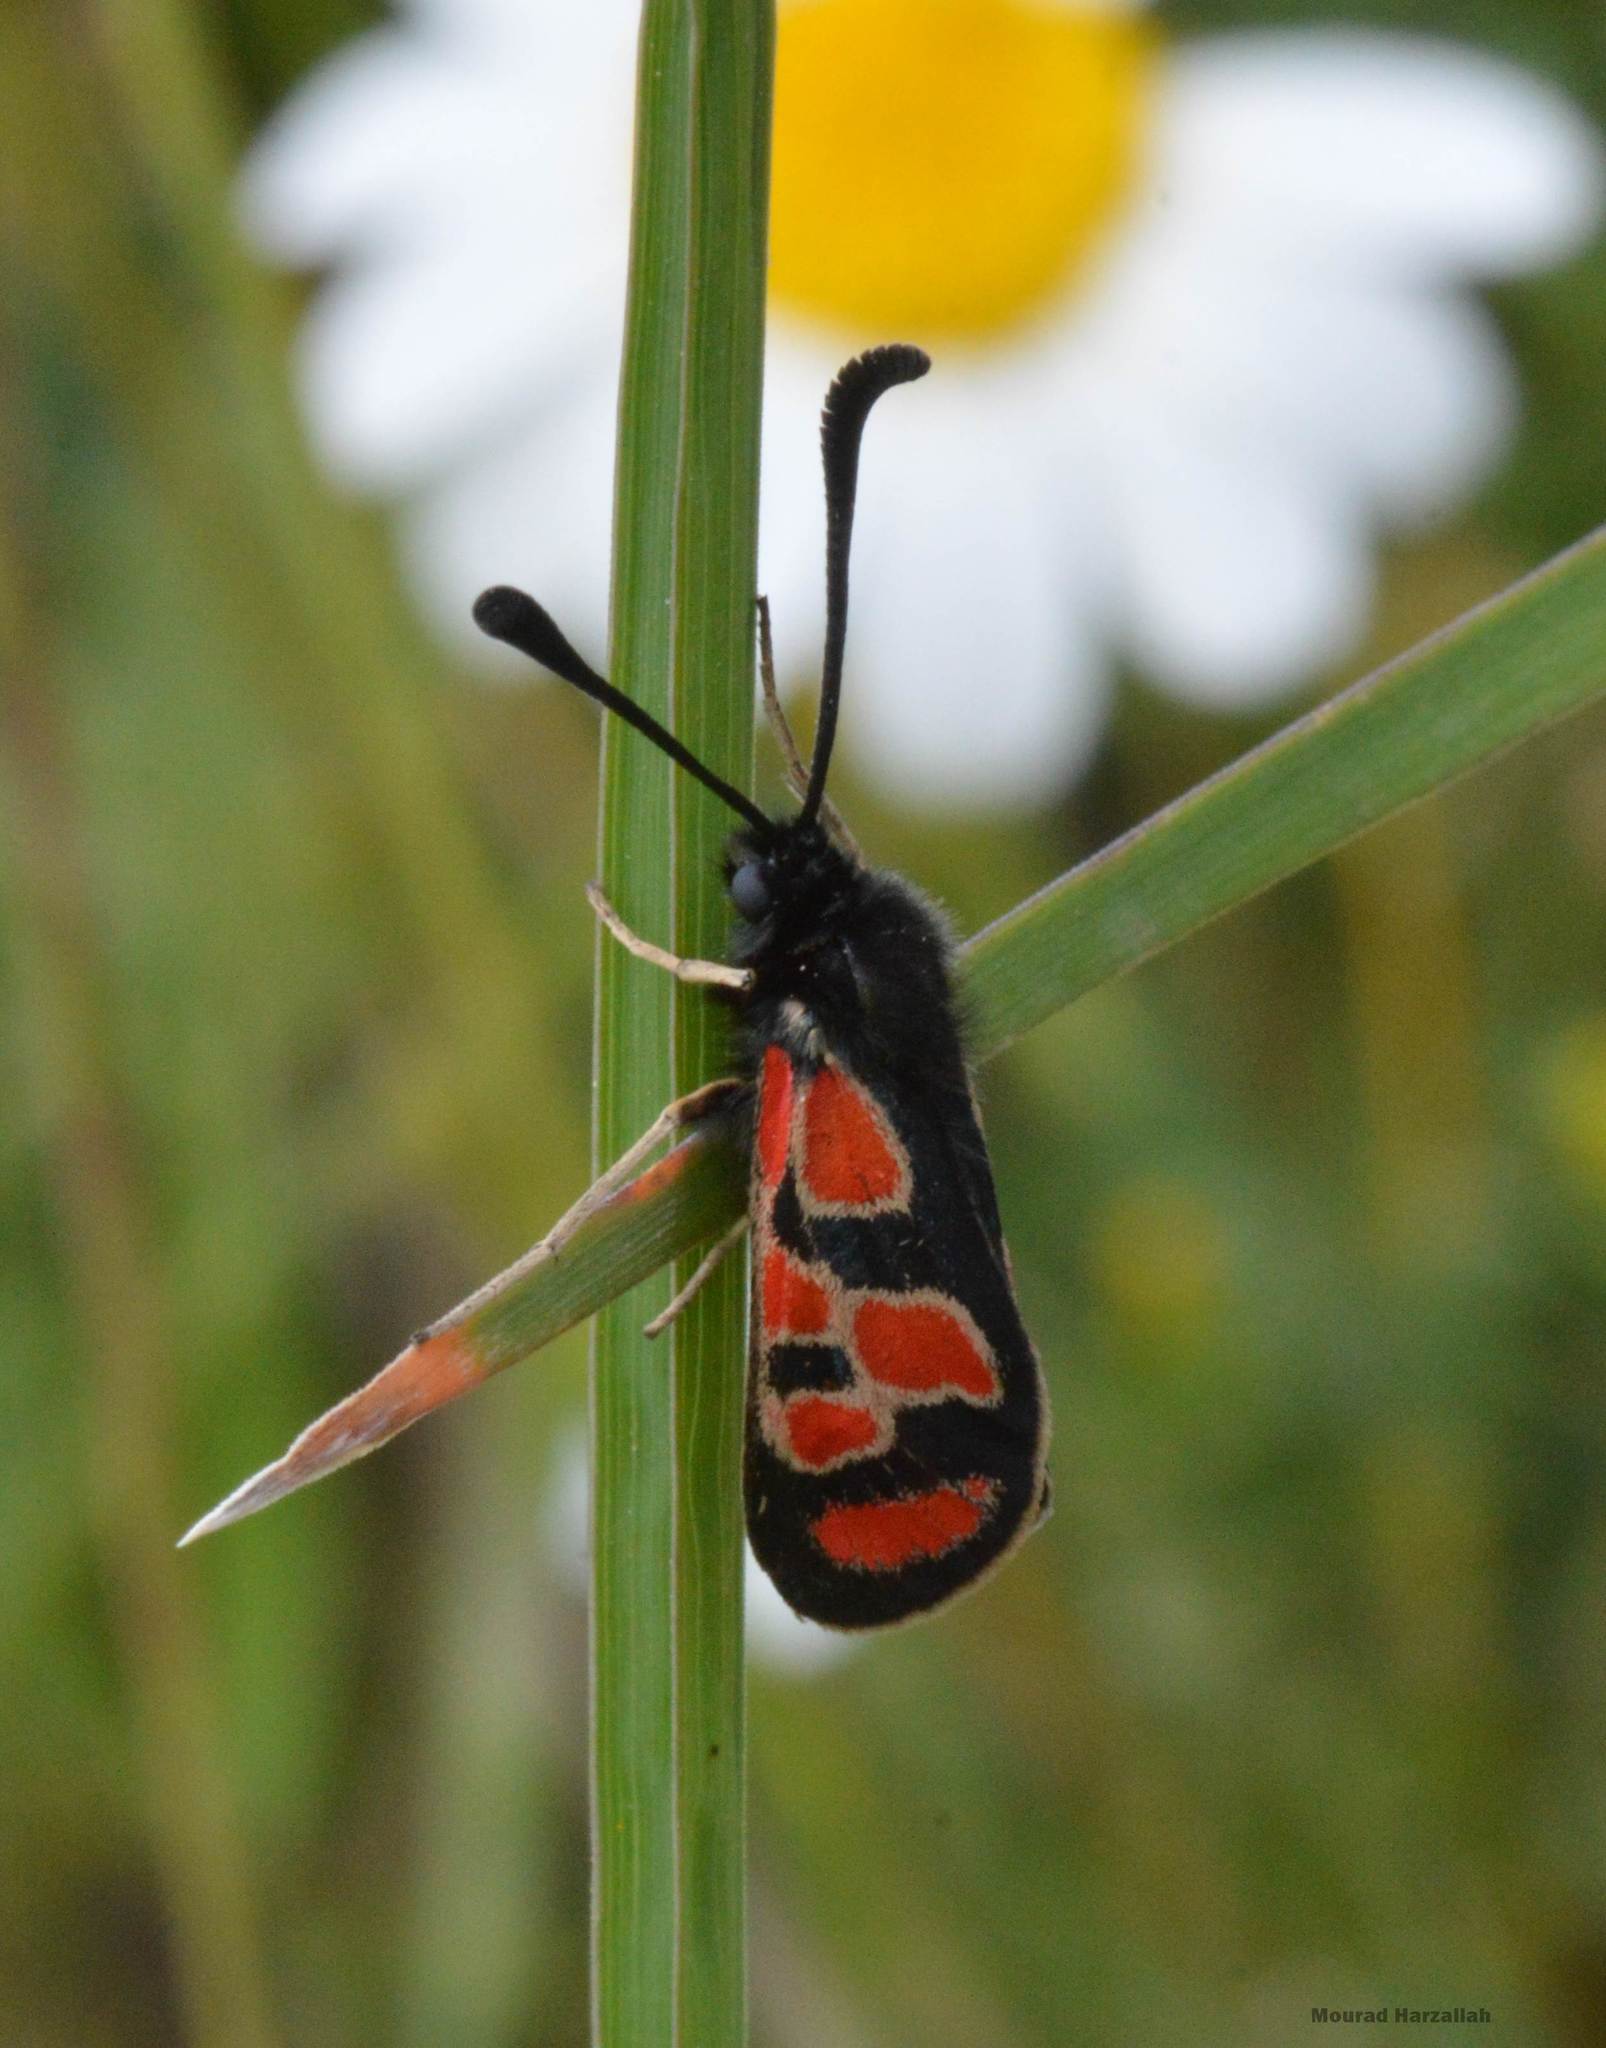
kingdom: Animalia
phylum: Arthropoda
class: Insecta
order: Lepidoptera
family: Zygaenidae
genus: Zygaena
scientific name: Zygaena orana
